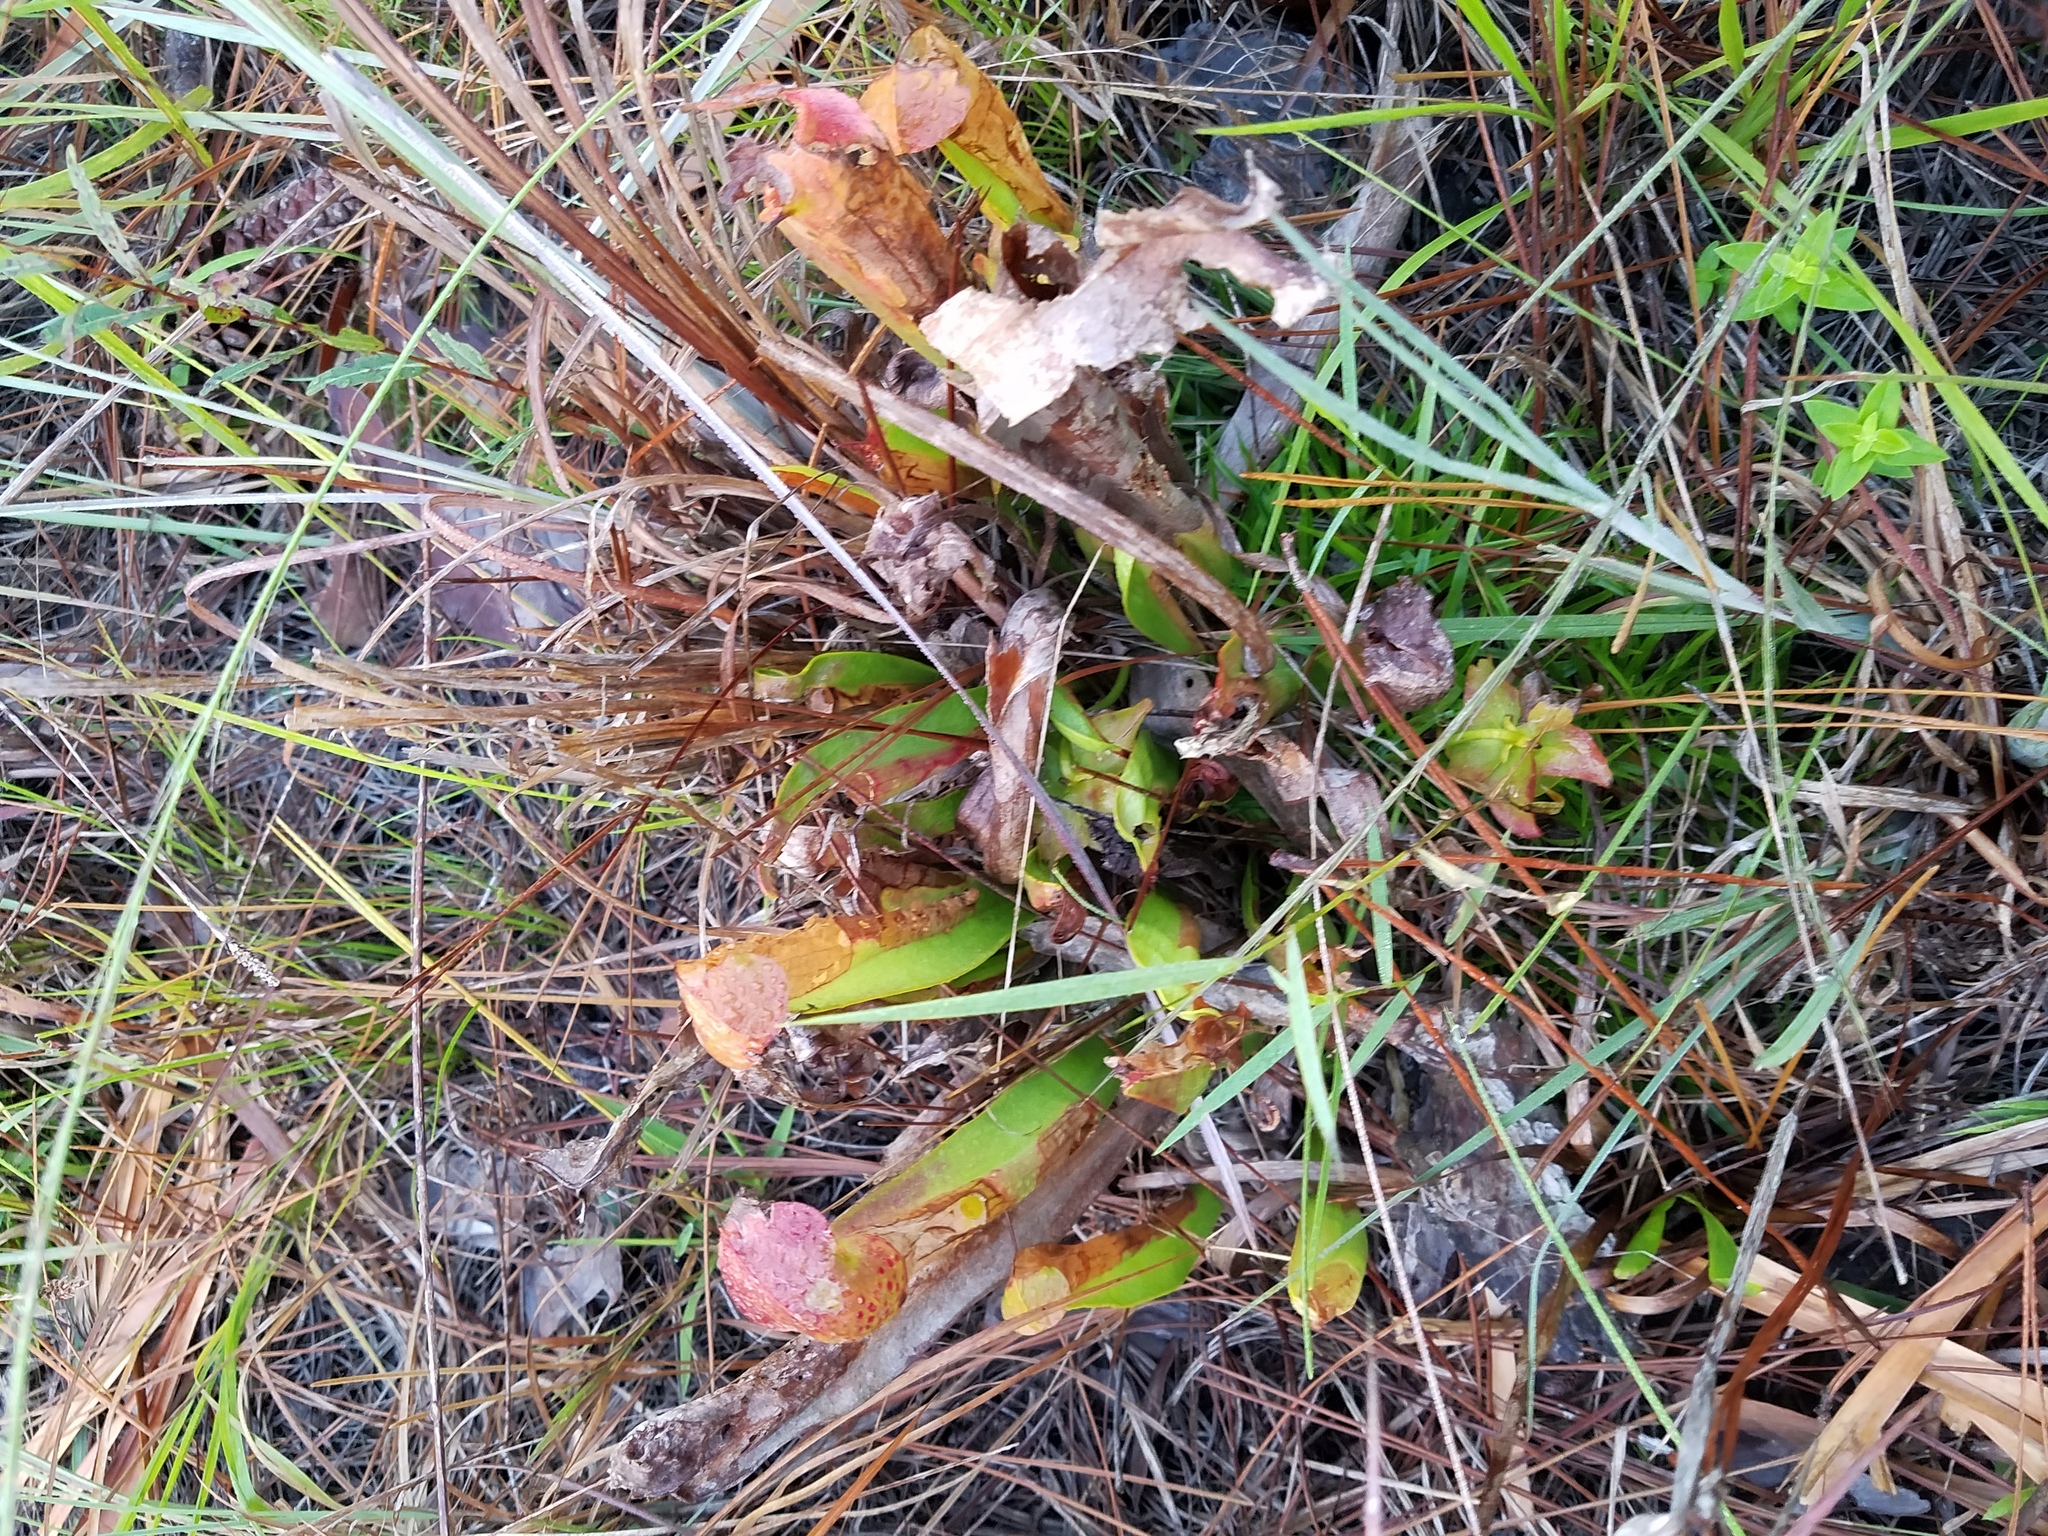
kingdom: Plantae
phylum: Tracheophyta
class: Magnoliopsida
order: Ericales
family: Sarraceniaceae
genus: Sarracenia
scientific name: Sarracenia minor
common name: Rainhat-trumpet
